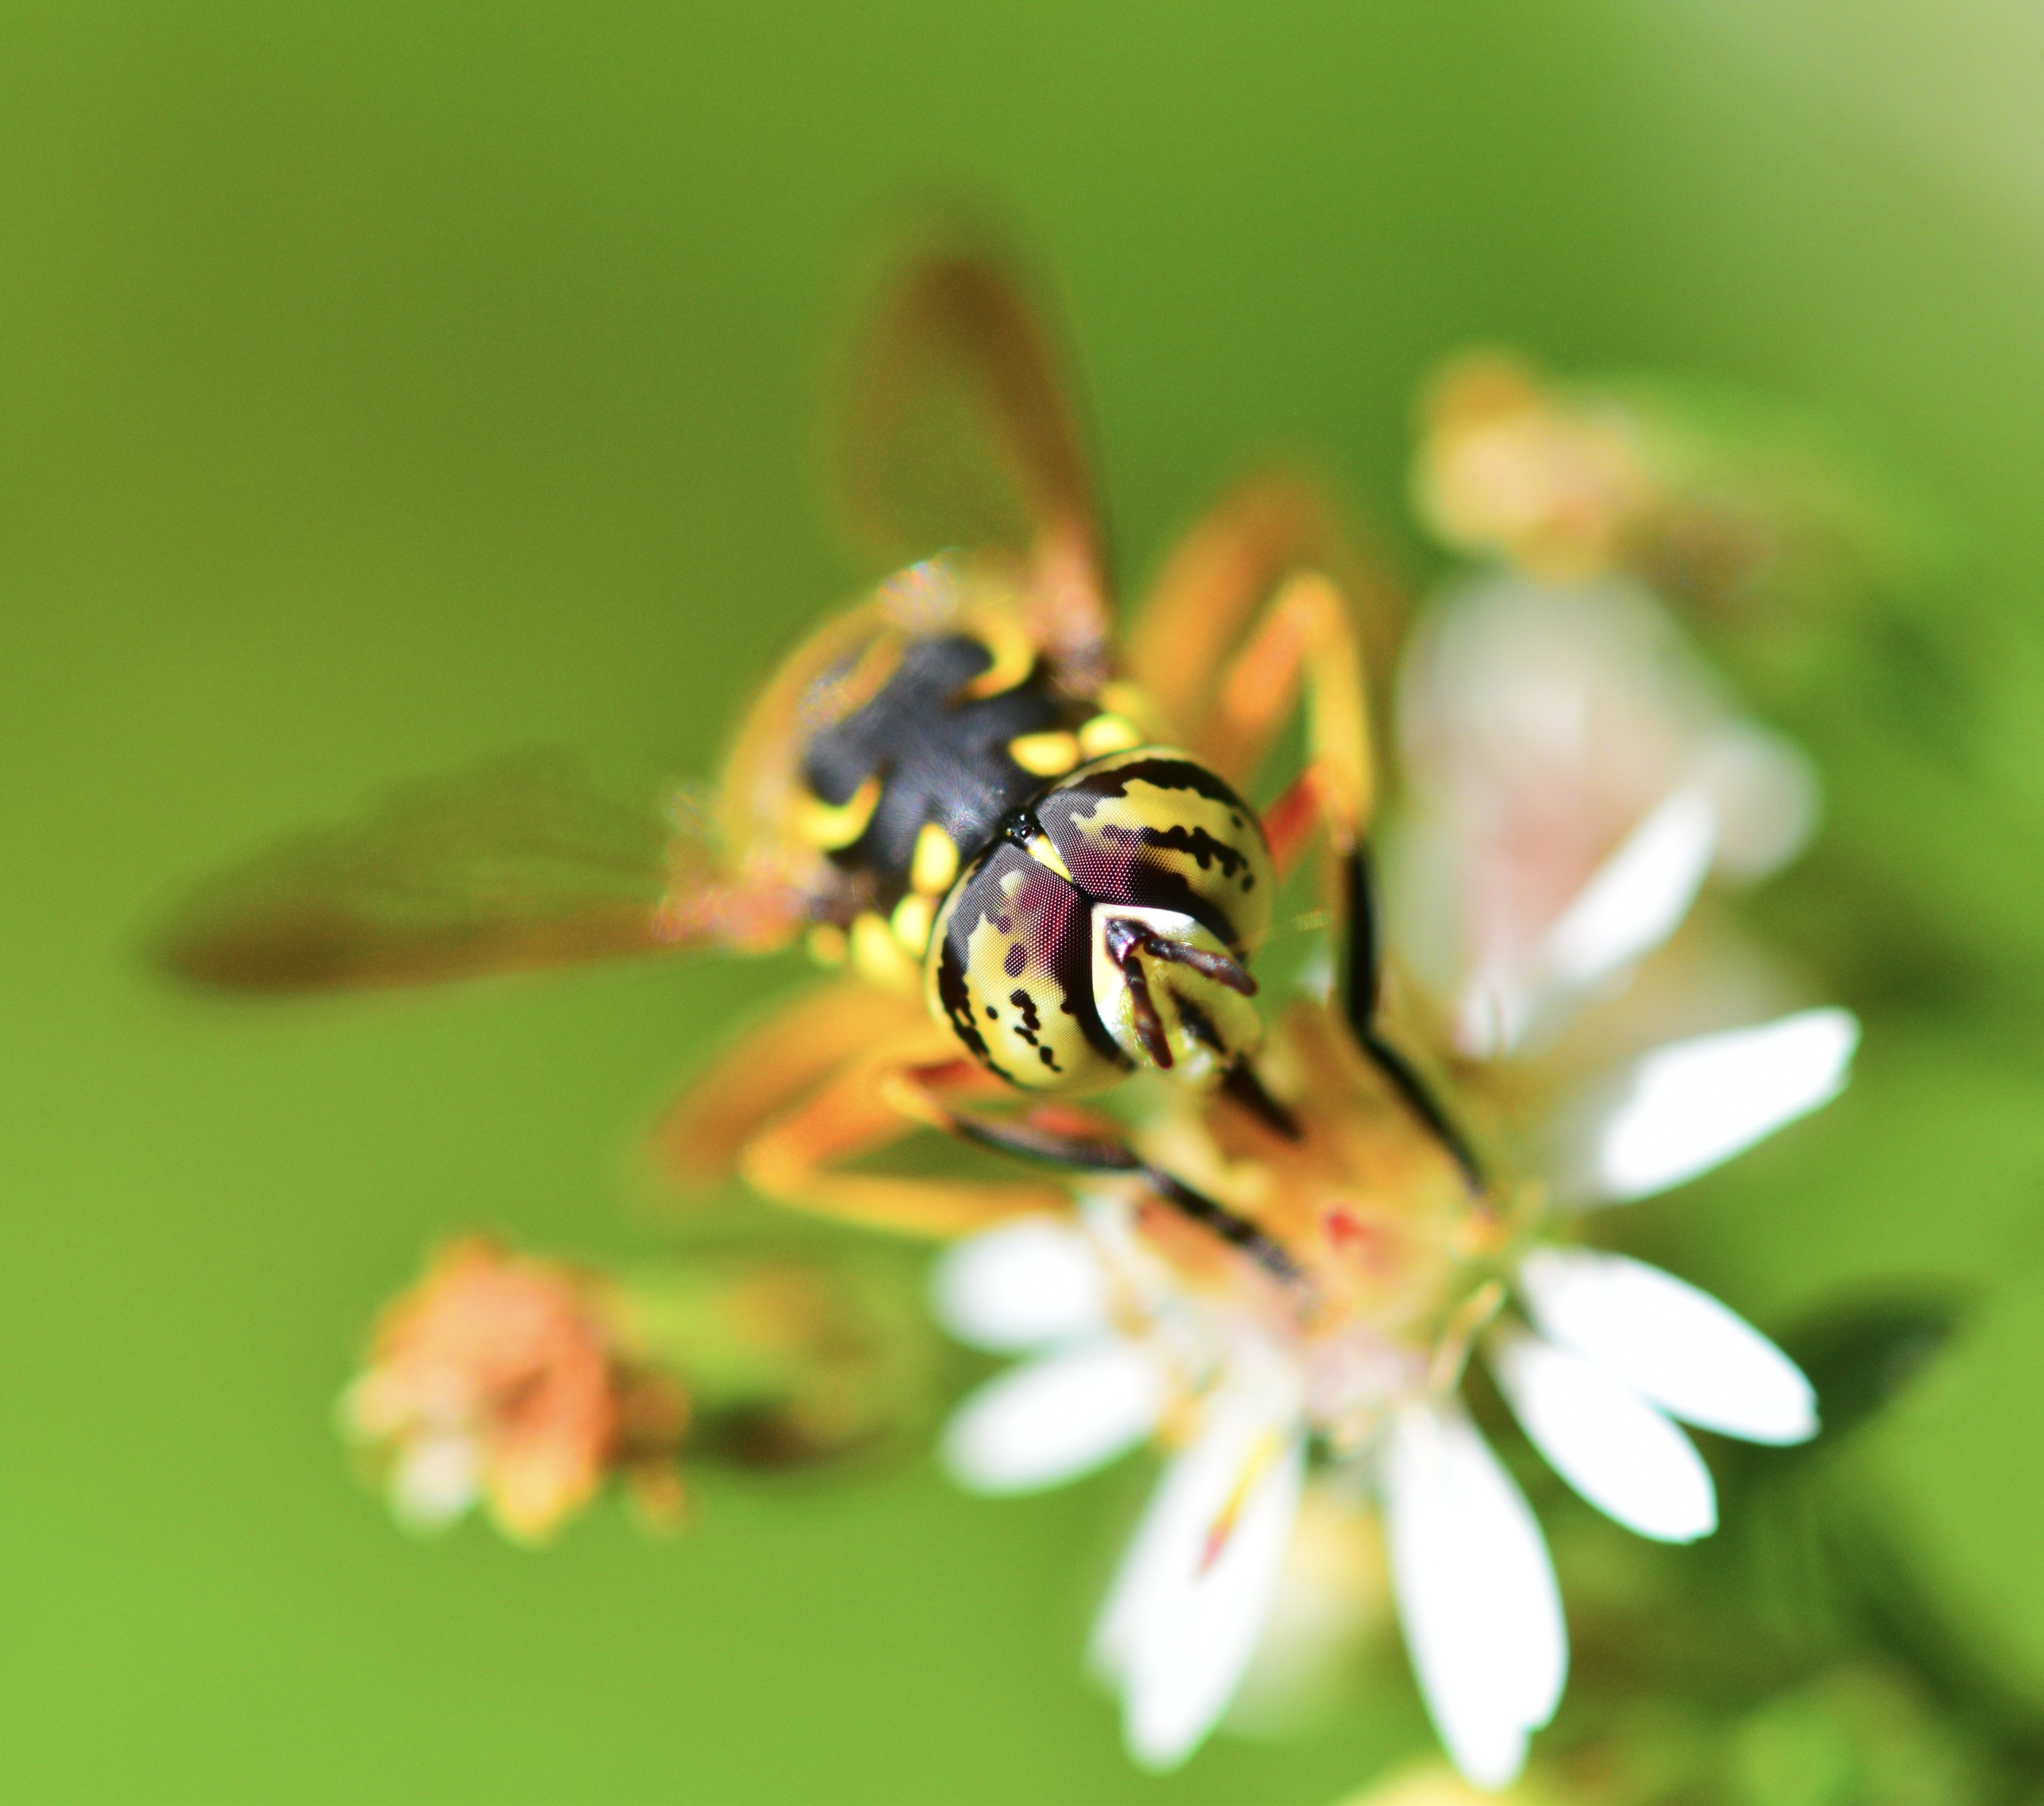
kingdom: Animalia
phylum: Arthropoda
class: Insecta
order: Diptera
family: Syrphidae
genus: Spilomyia
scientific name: Spilomyia longicornis
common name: Eastern hornet fly
